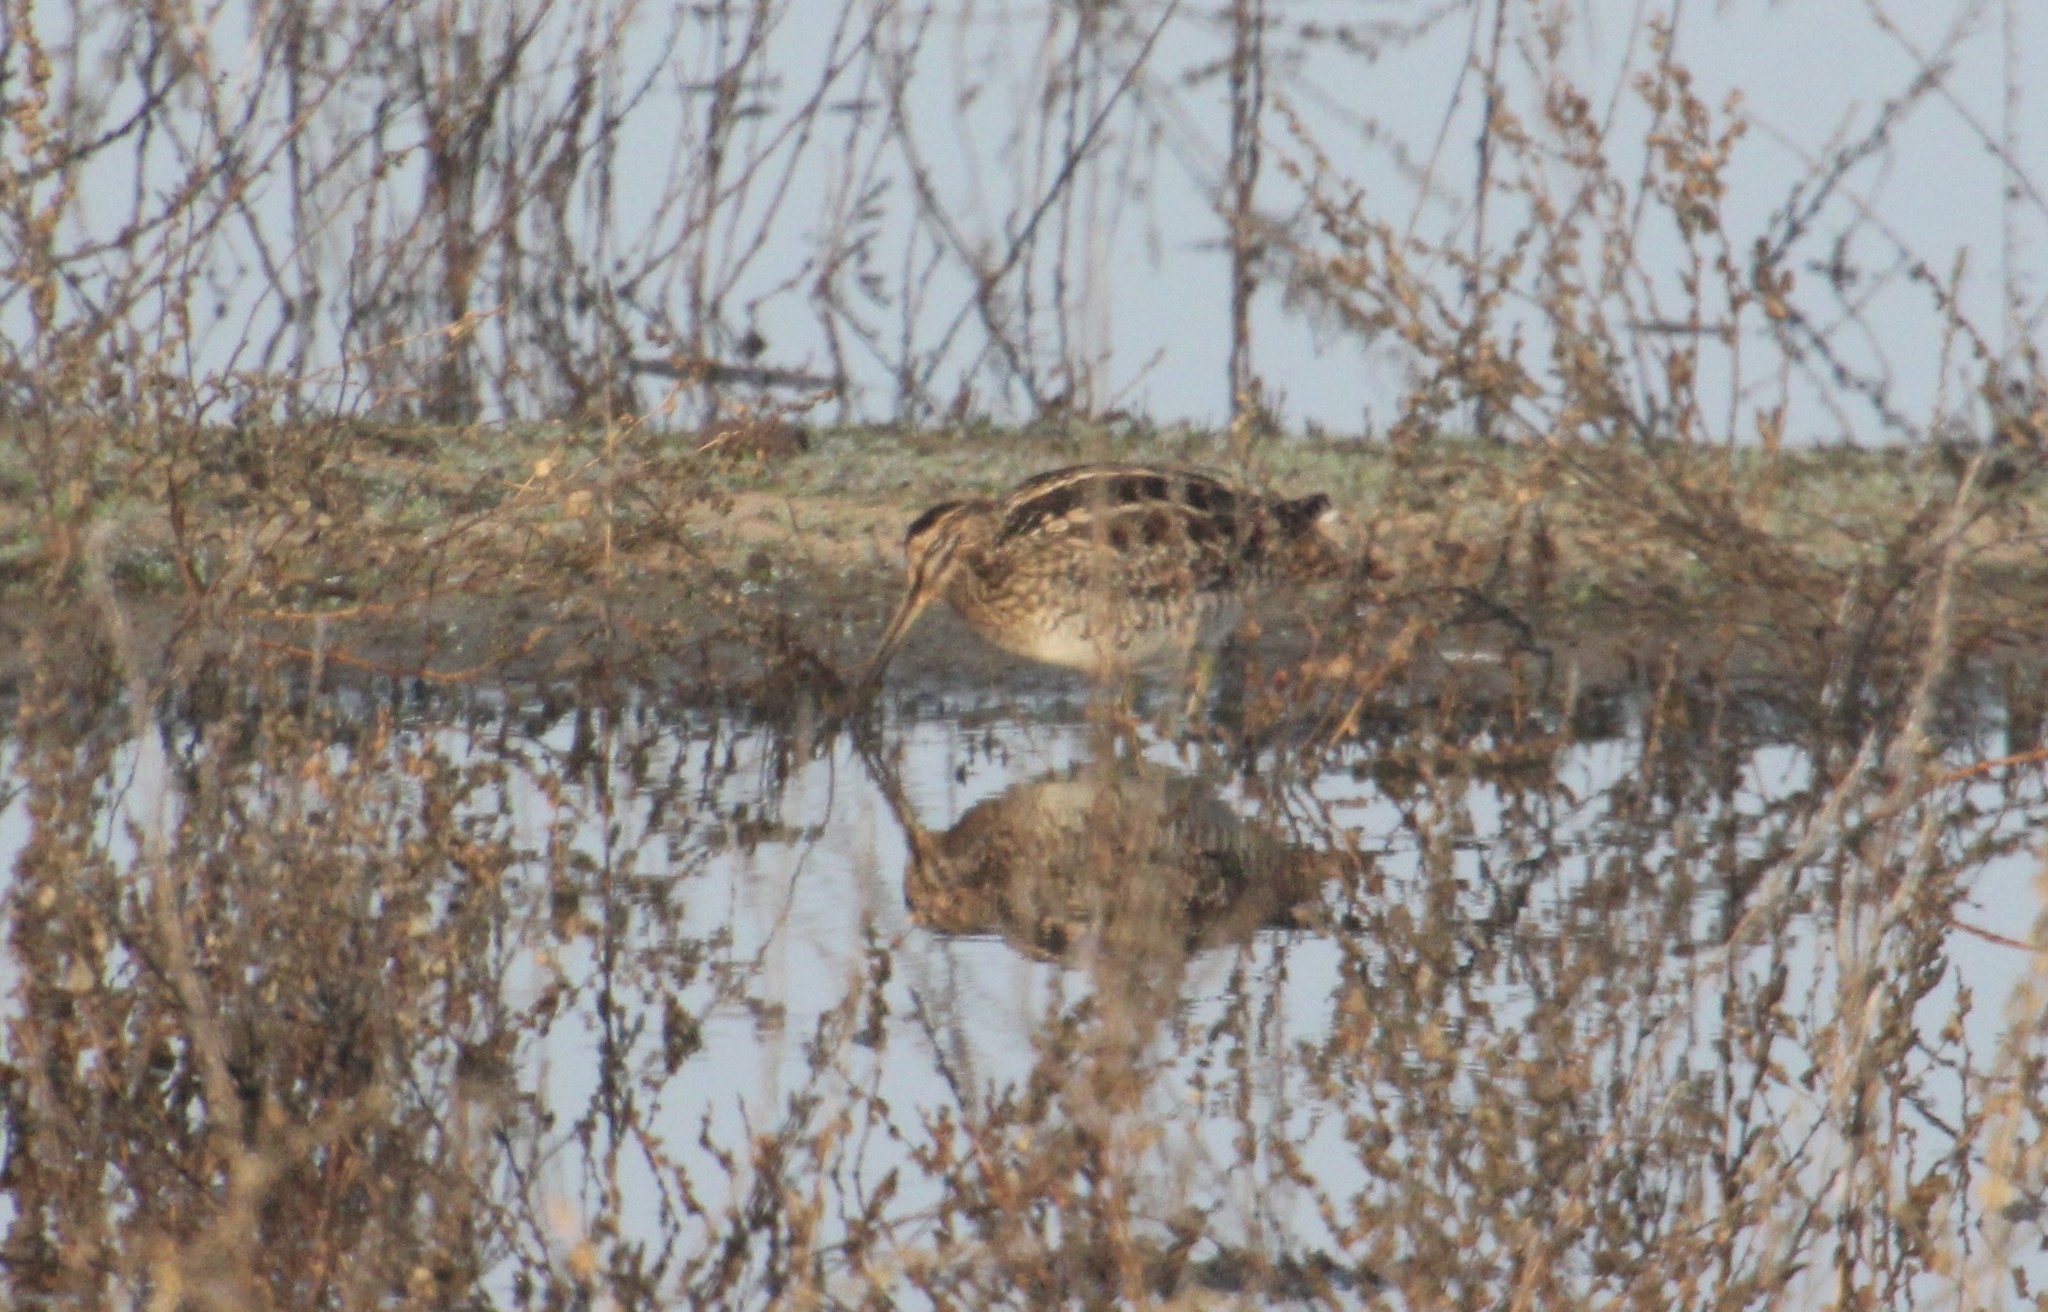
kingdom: Animalia
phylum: Chordata
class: Aves
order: Charadriiformes
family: Scolopacidae
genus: Gallinago
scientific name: Gallinago delicata
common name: Wilson's snipe
